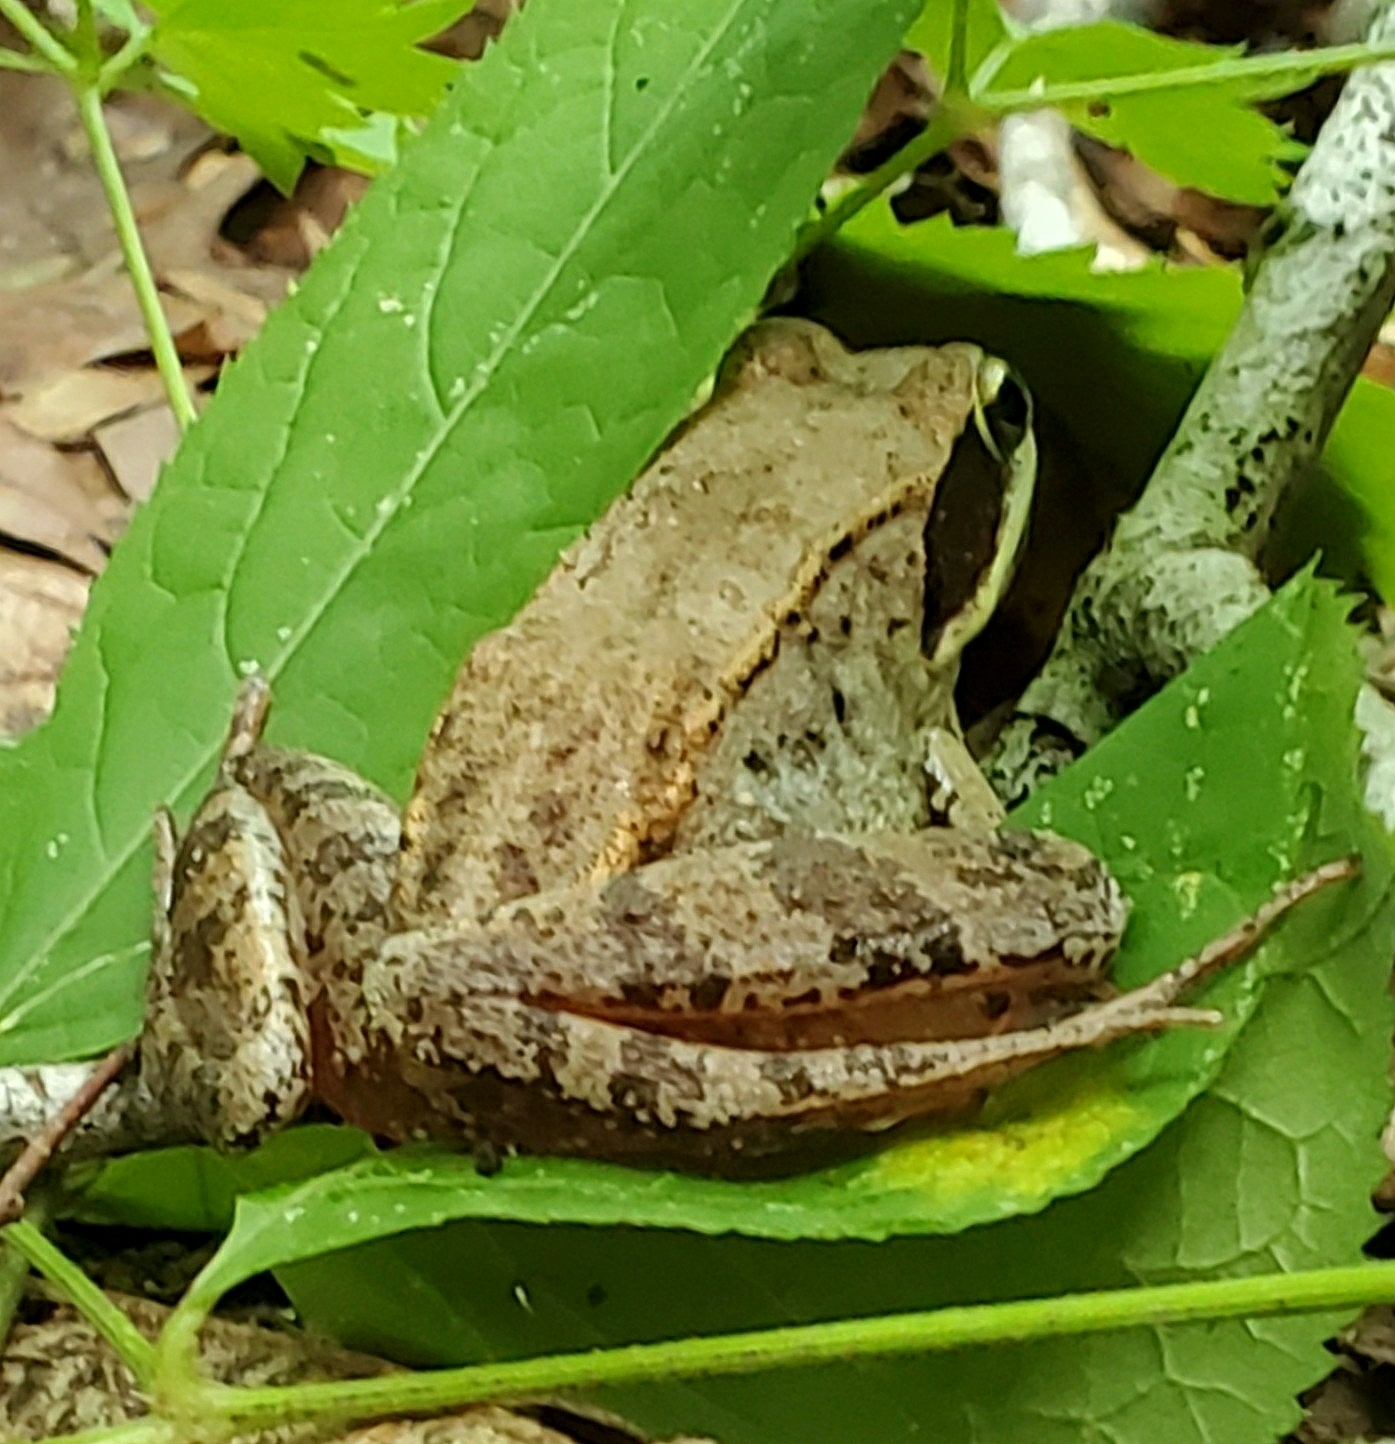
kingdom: Animalia
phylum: Chordata
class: Amphibia
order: Anura
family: Ranidae
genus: Lithobates
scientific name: Lithobates sylvaticus
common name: Wood frog
